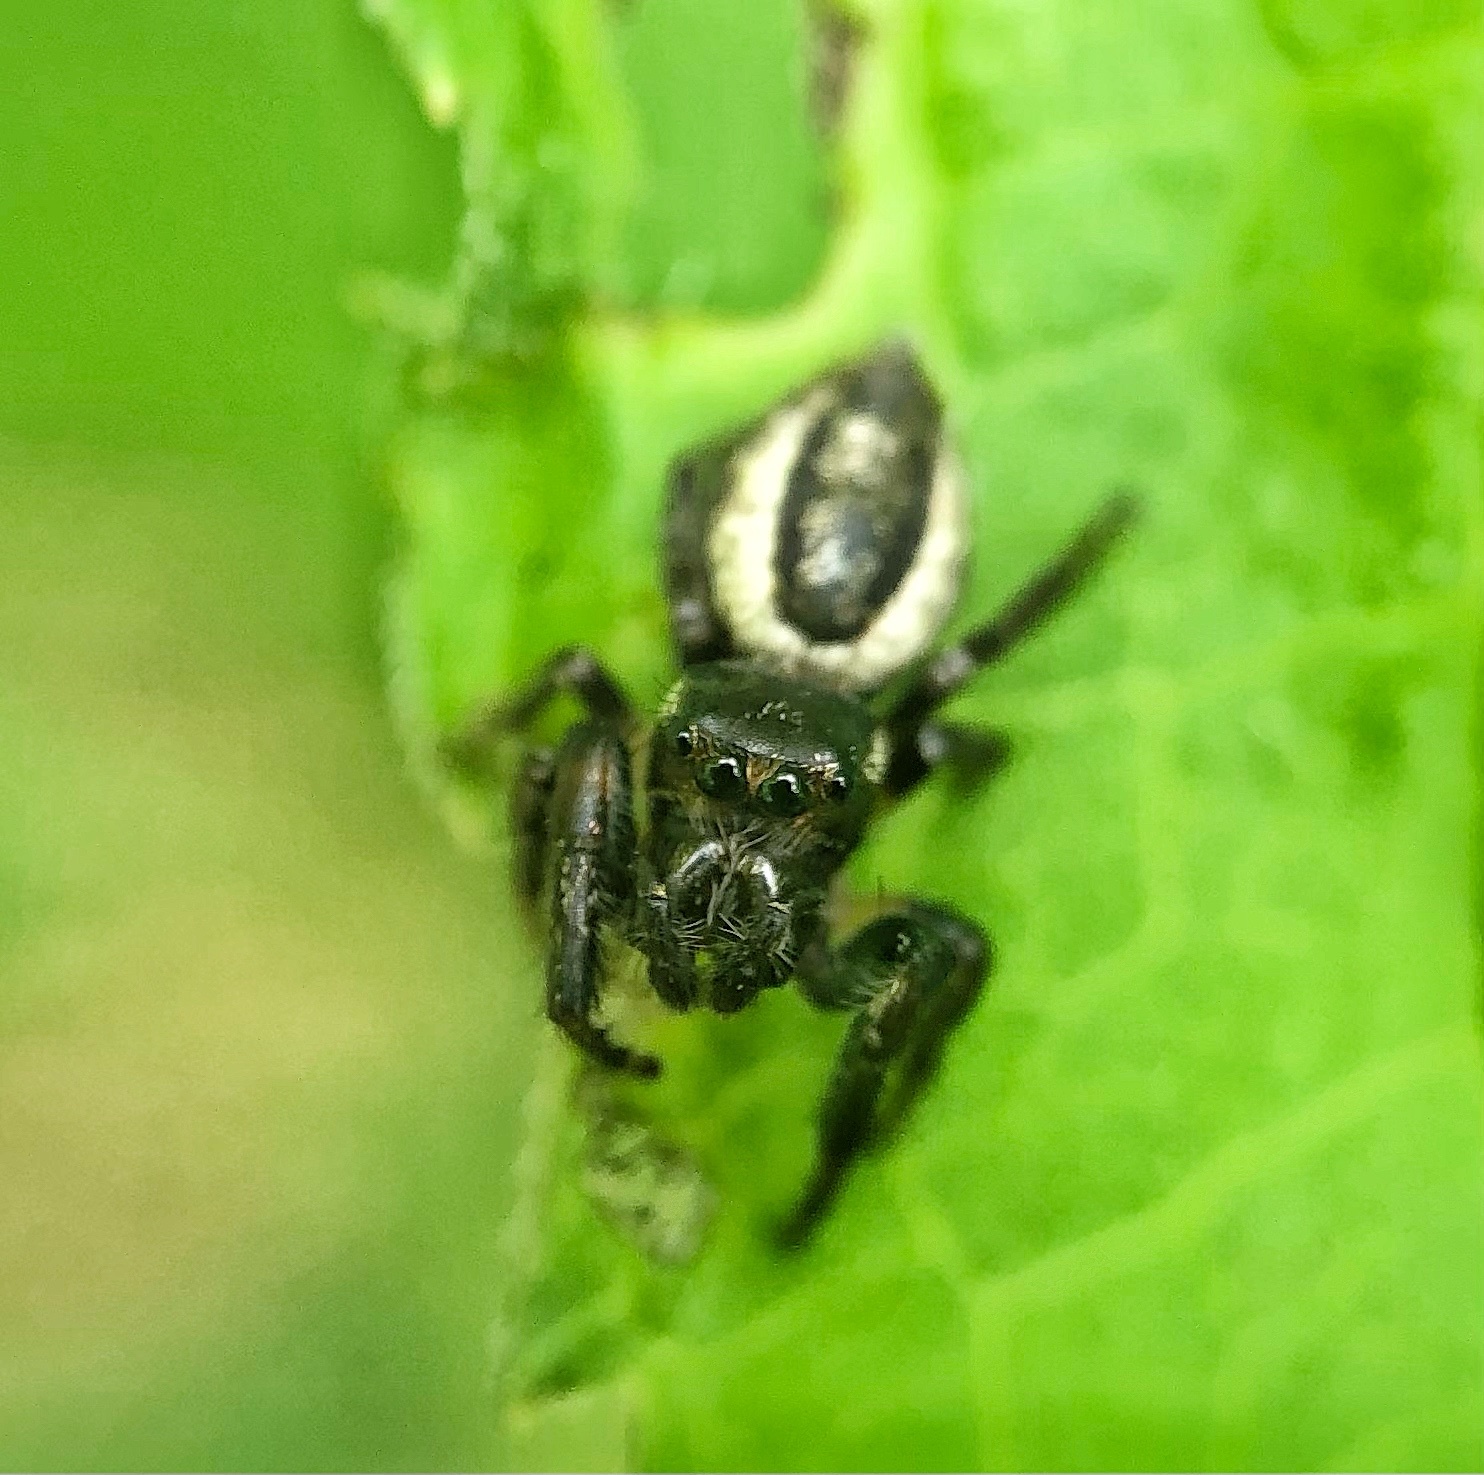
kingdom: Animalia
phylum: Arthropoda
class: Arachnida
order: Araneae
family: Salticidae
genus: Eris
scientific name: Eris militaris
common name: Bronze jumper
